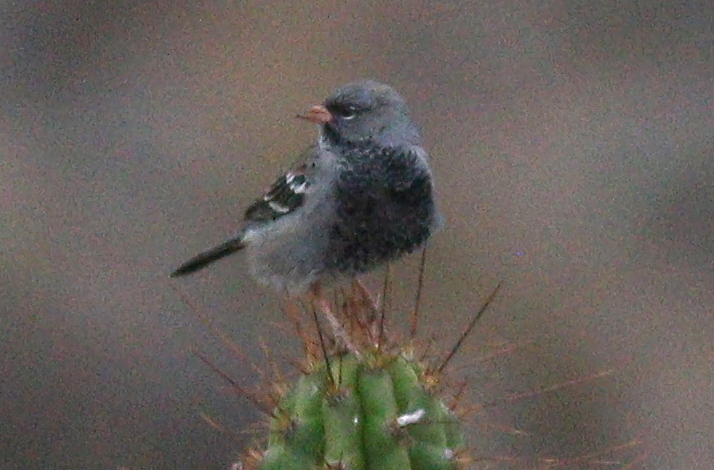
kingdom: Animalia
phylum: Chordata
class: Aves
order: Passeriformes
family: Thraupidae
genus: Rhopospina
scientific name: Rhopospina fruticeti
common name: Mourning sierra finch
